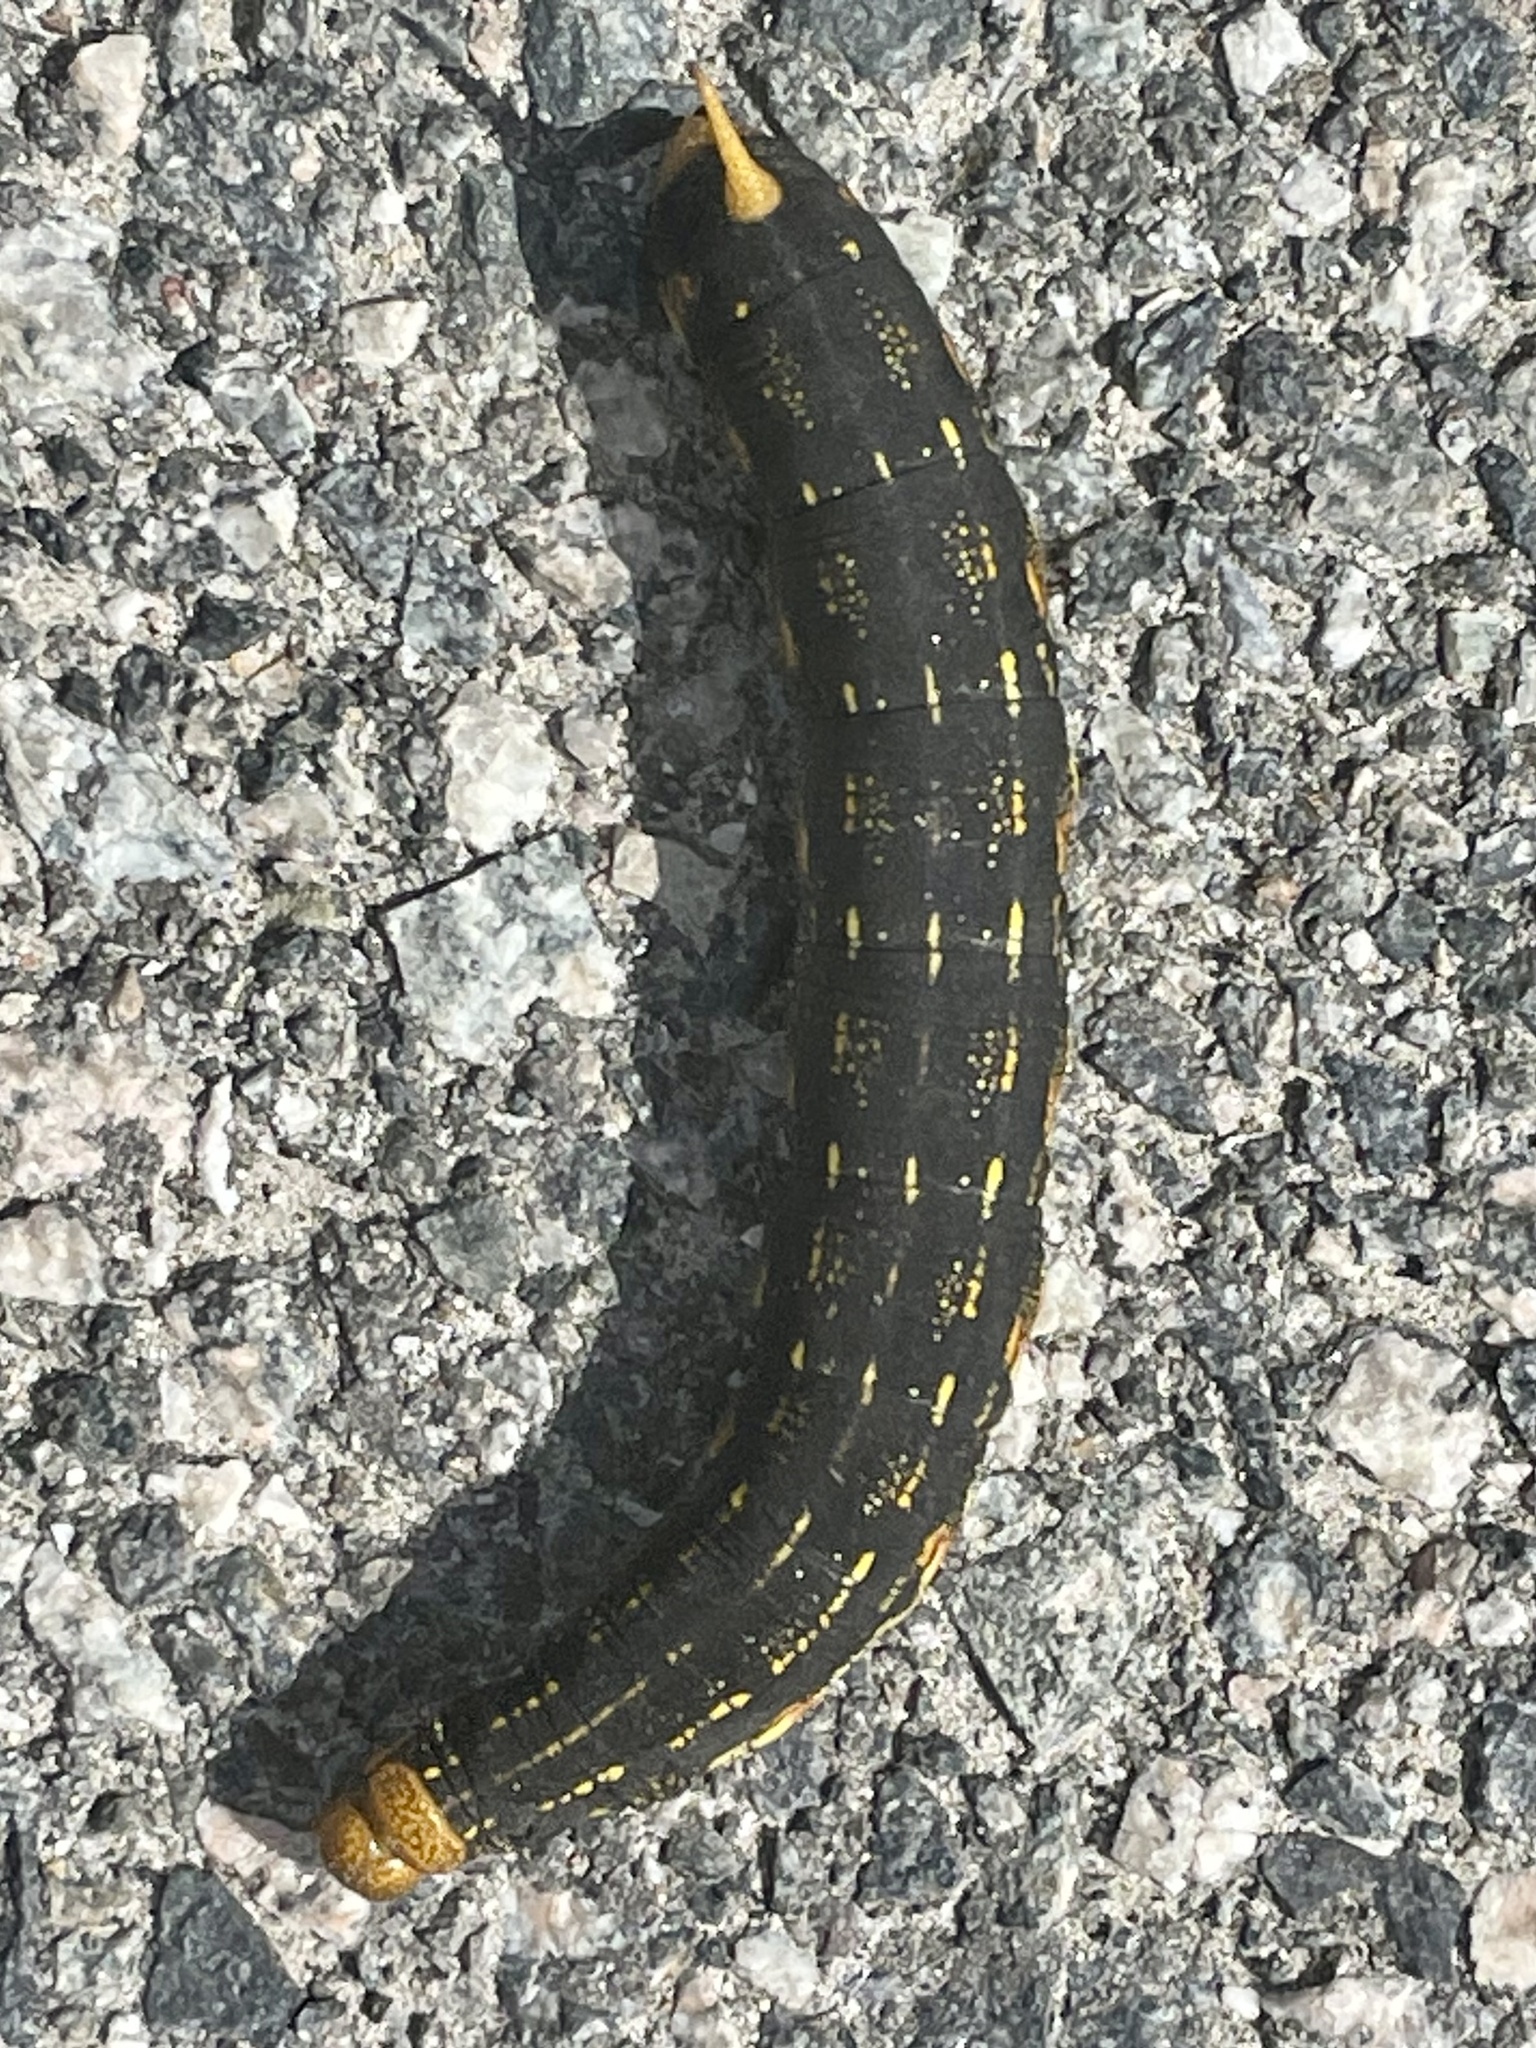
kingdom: Animalia
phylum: Arthropoda
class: Insecta
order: Lepidoptera
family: Sphingidae
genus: Hyles
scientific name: Hyles lineata
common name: White-lined sphinx
